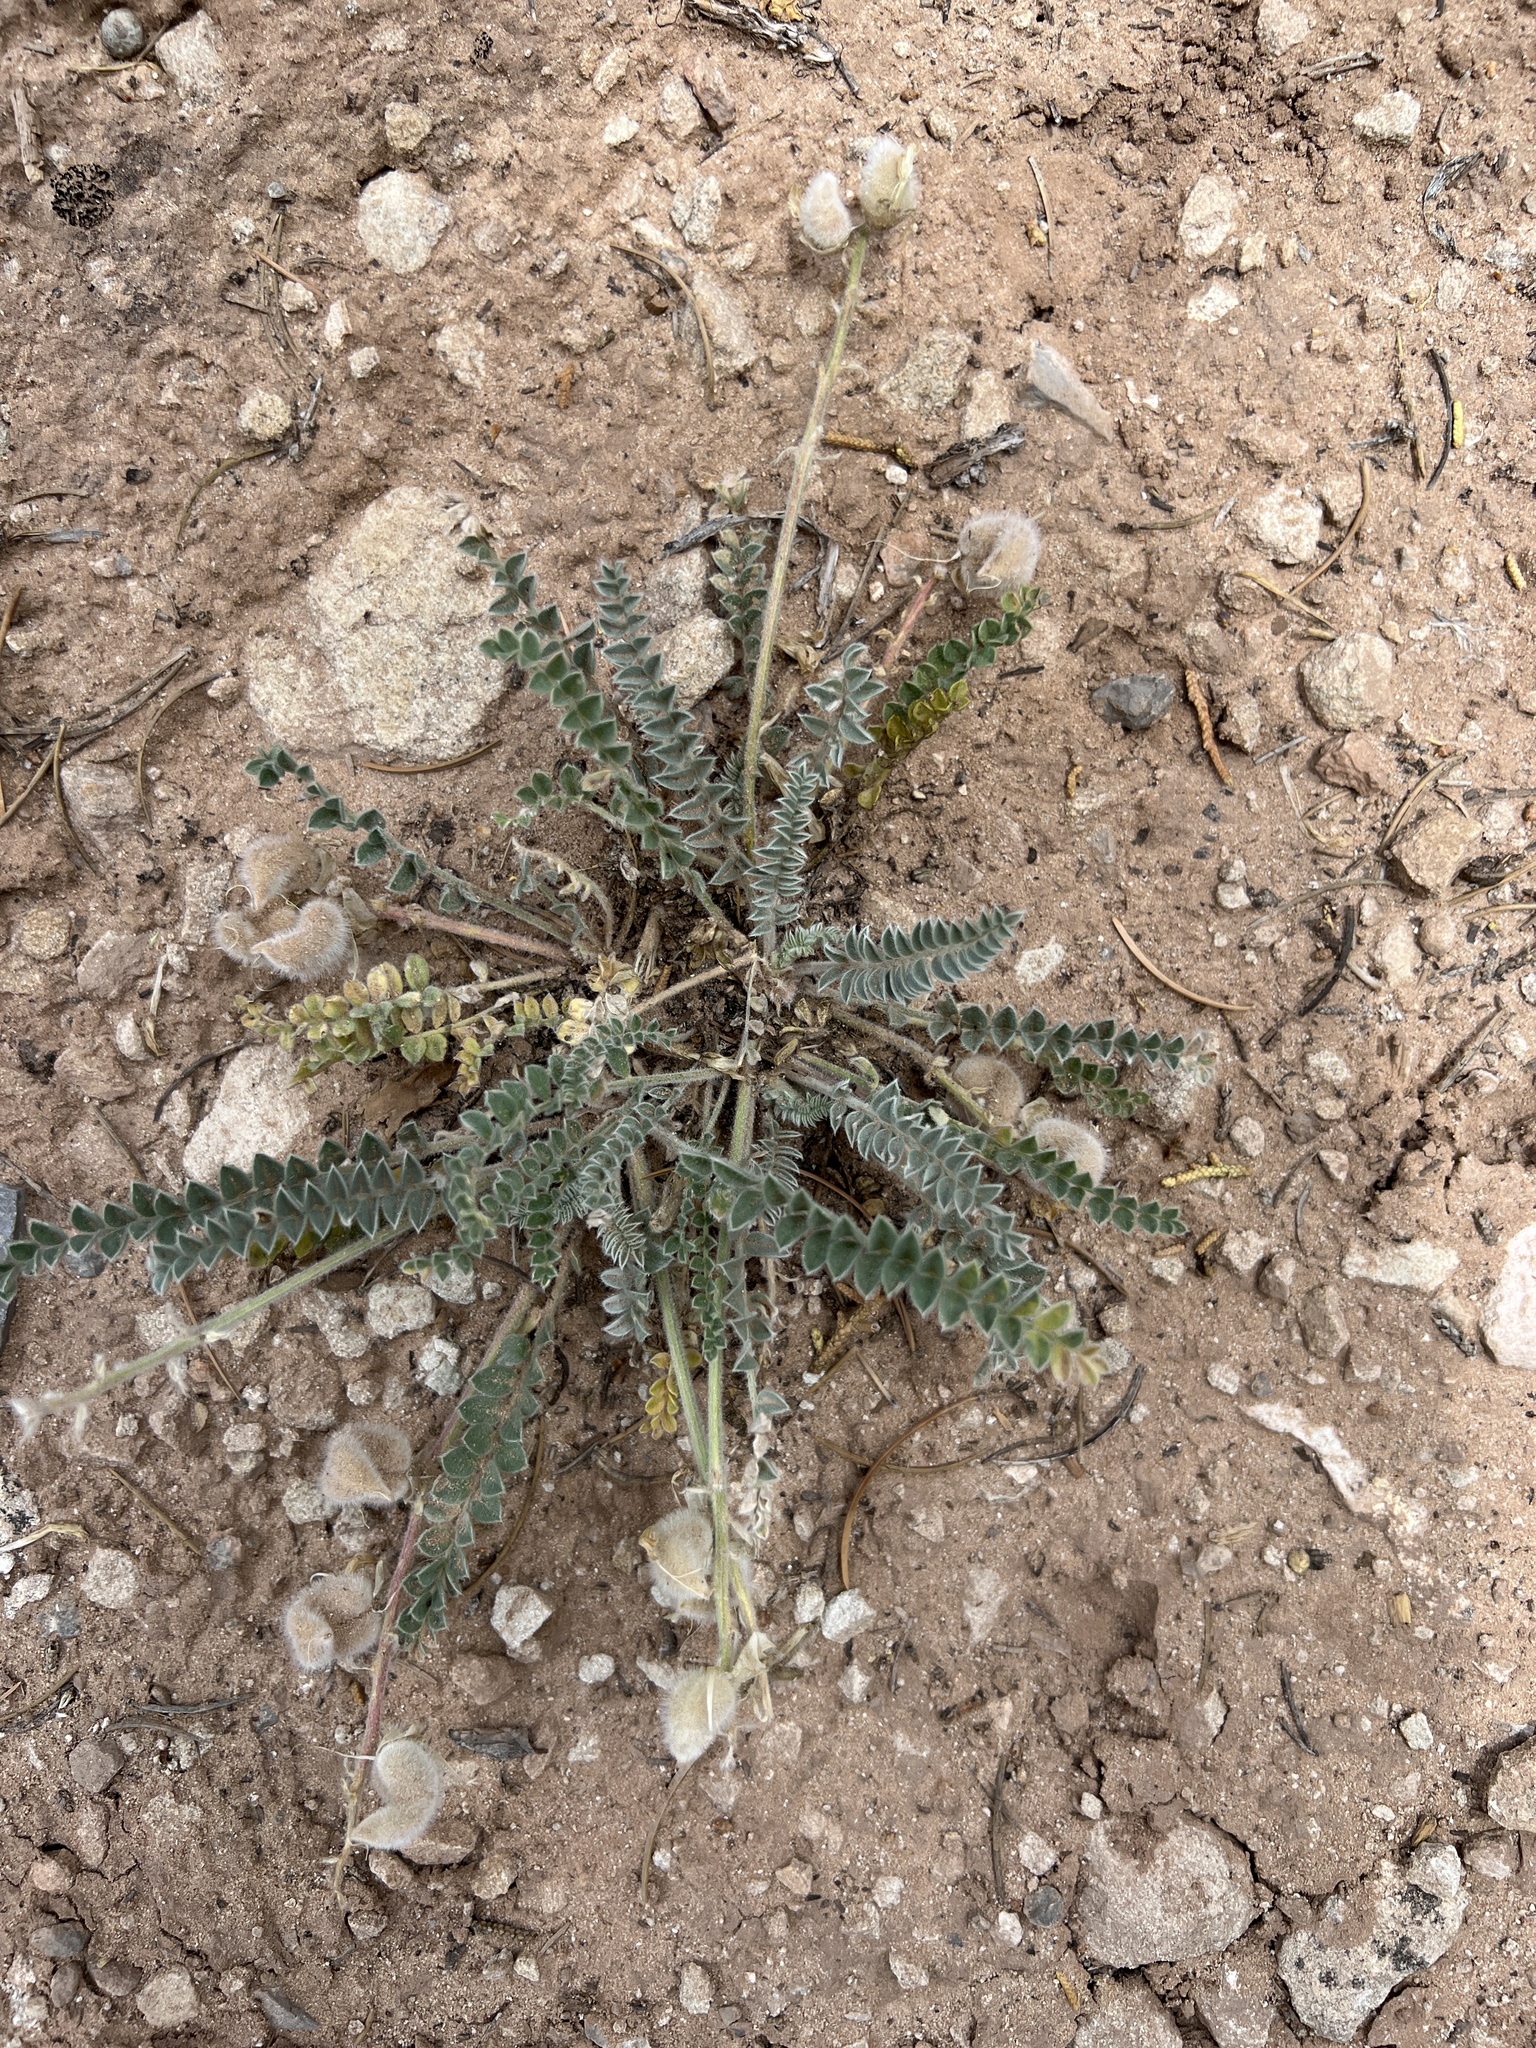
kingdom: Plantae
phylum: Tracheophyta
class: Magnoliopsida
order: Fabales
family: Fabaceae
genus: Astragalus
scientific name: Astragalus mollissimus
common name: Woolly locoweed
